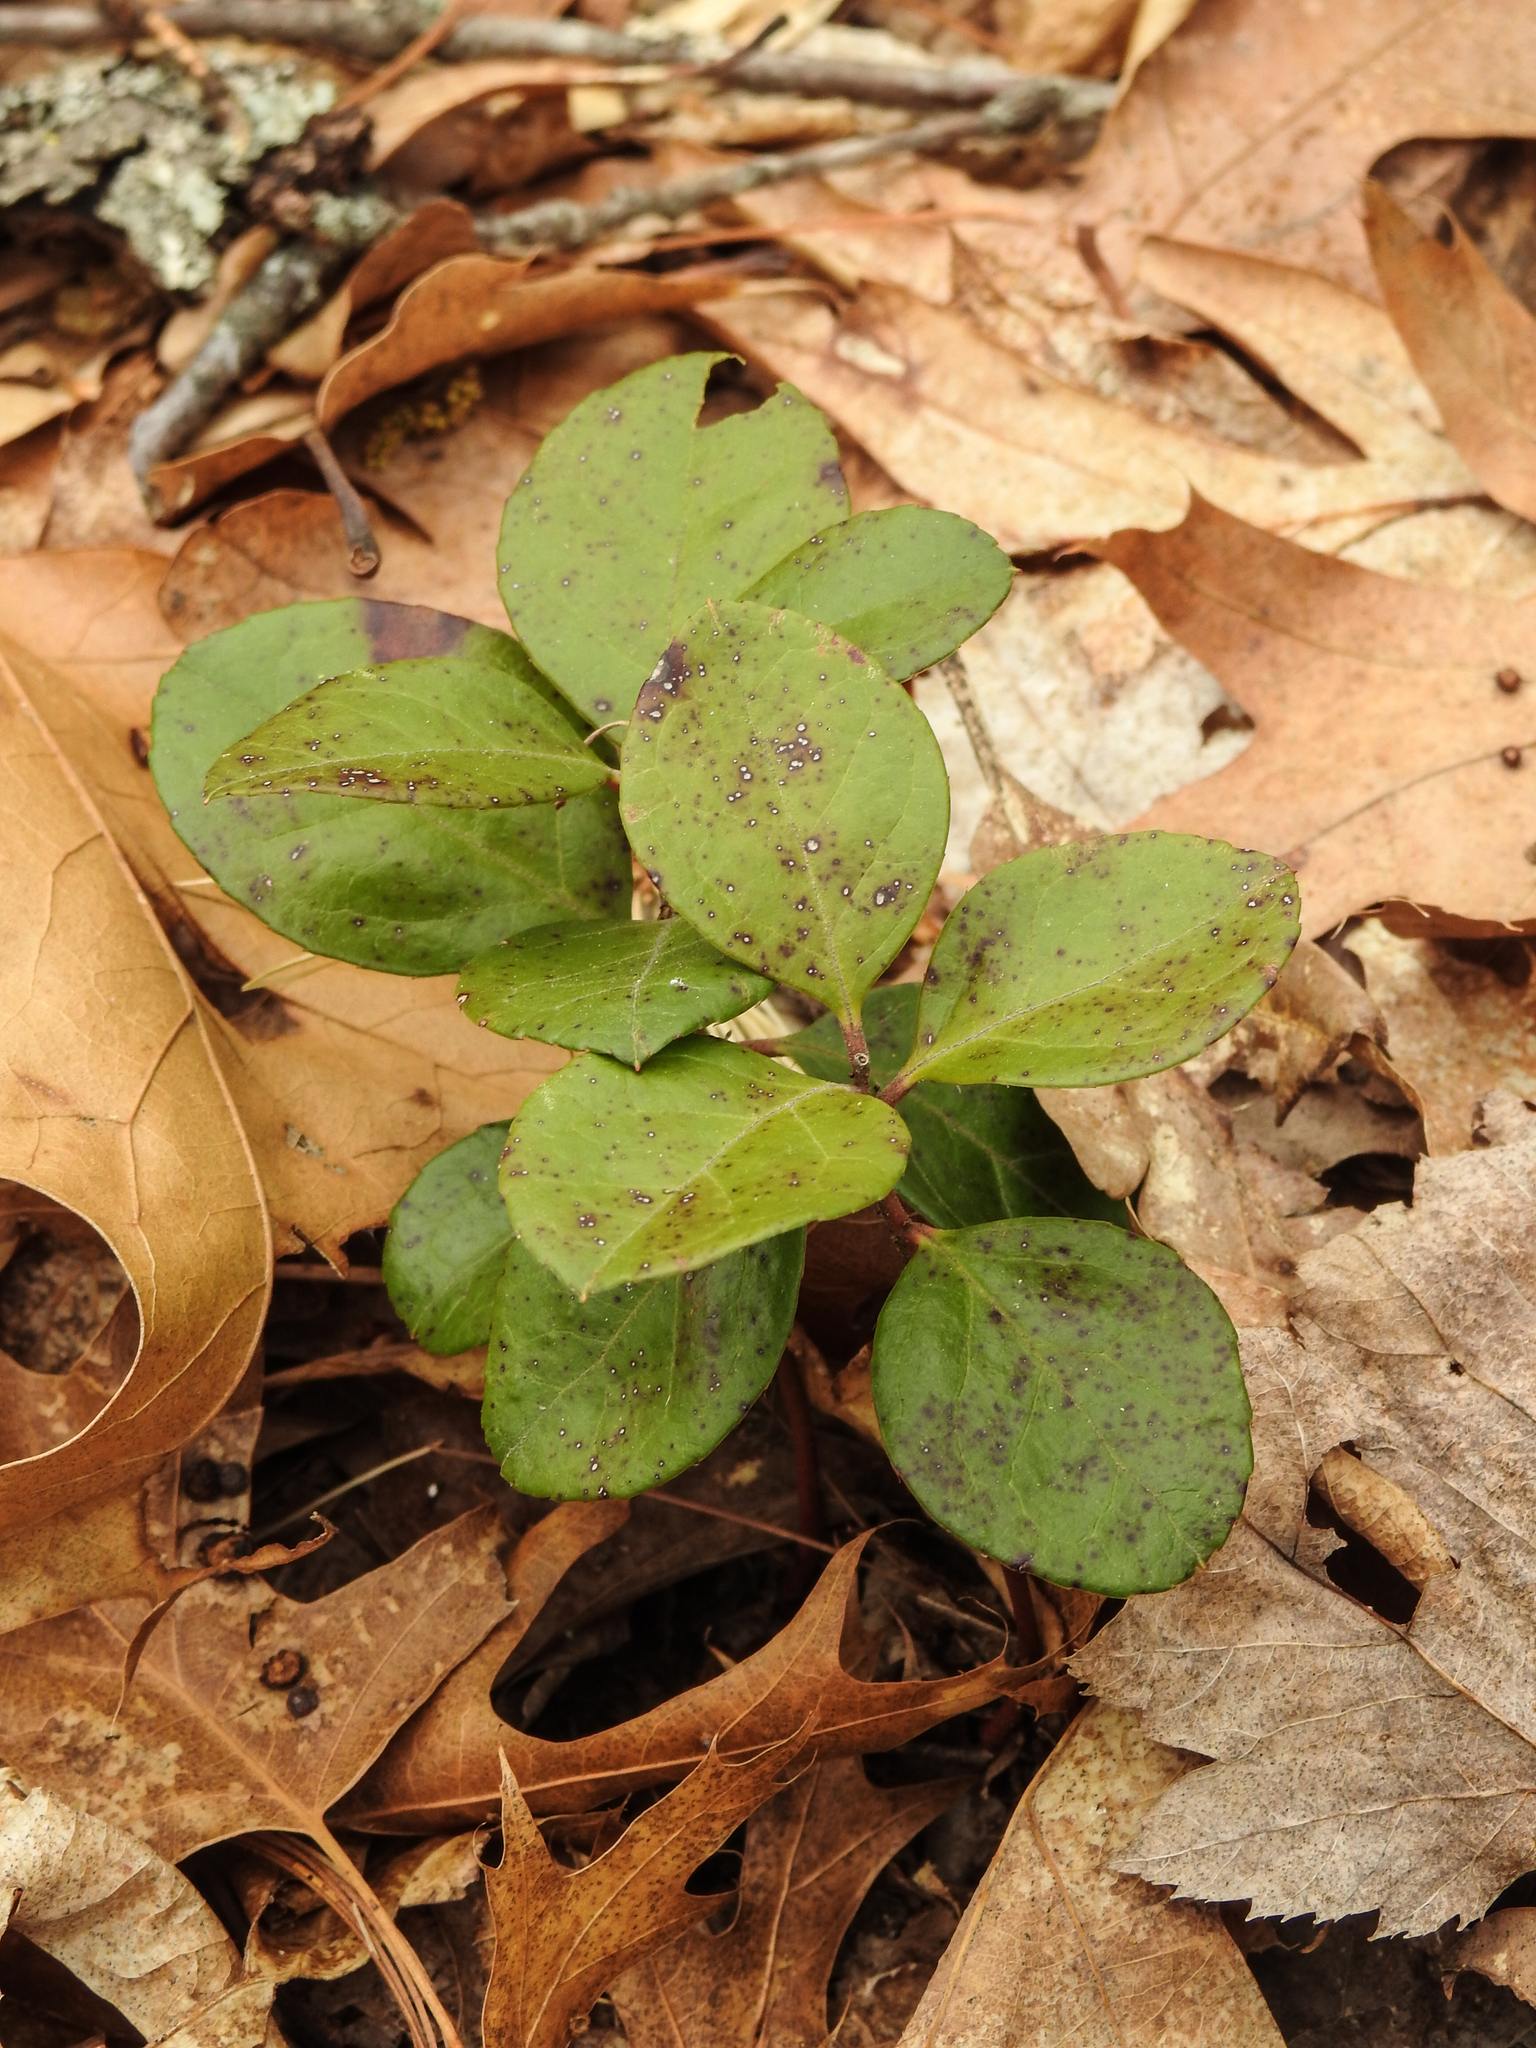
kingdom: Plantae
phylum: Tracheophyta
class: Magnoliopsida
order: Ericales
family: Ericaceae
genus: Gaultheria
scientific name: Gaultheria procumbens
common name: Checkerberry
